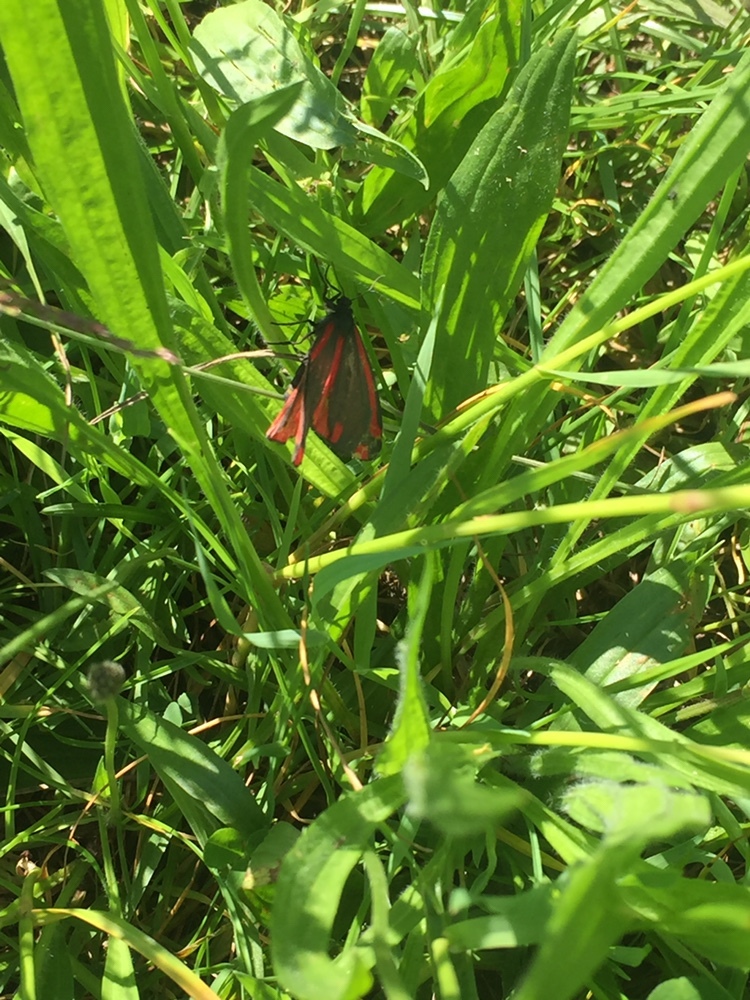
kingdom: Animalia
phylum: Arthropoda
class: Insecta
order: Lepidoptera
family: Erebidae
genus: Tyria
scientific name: Tyria jacobaeae
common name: Cinnabar
